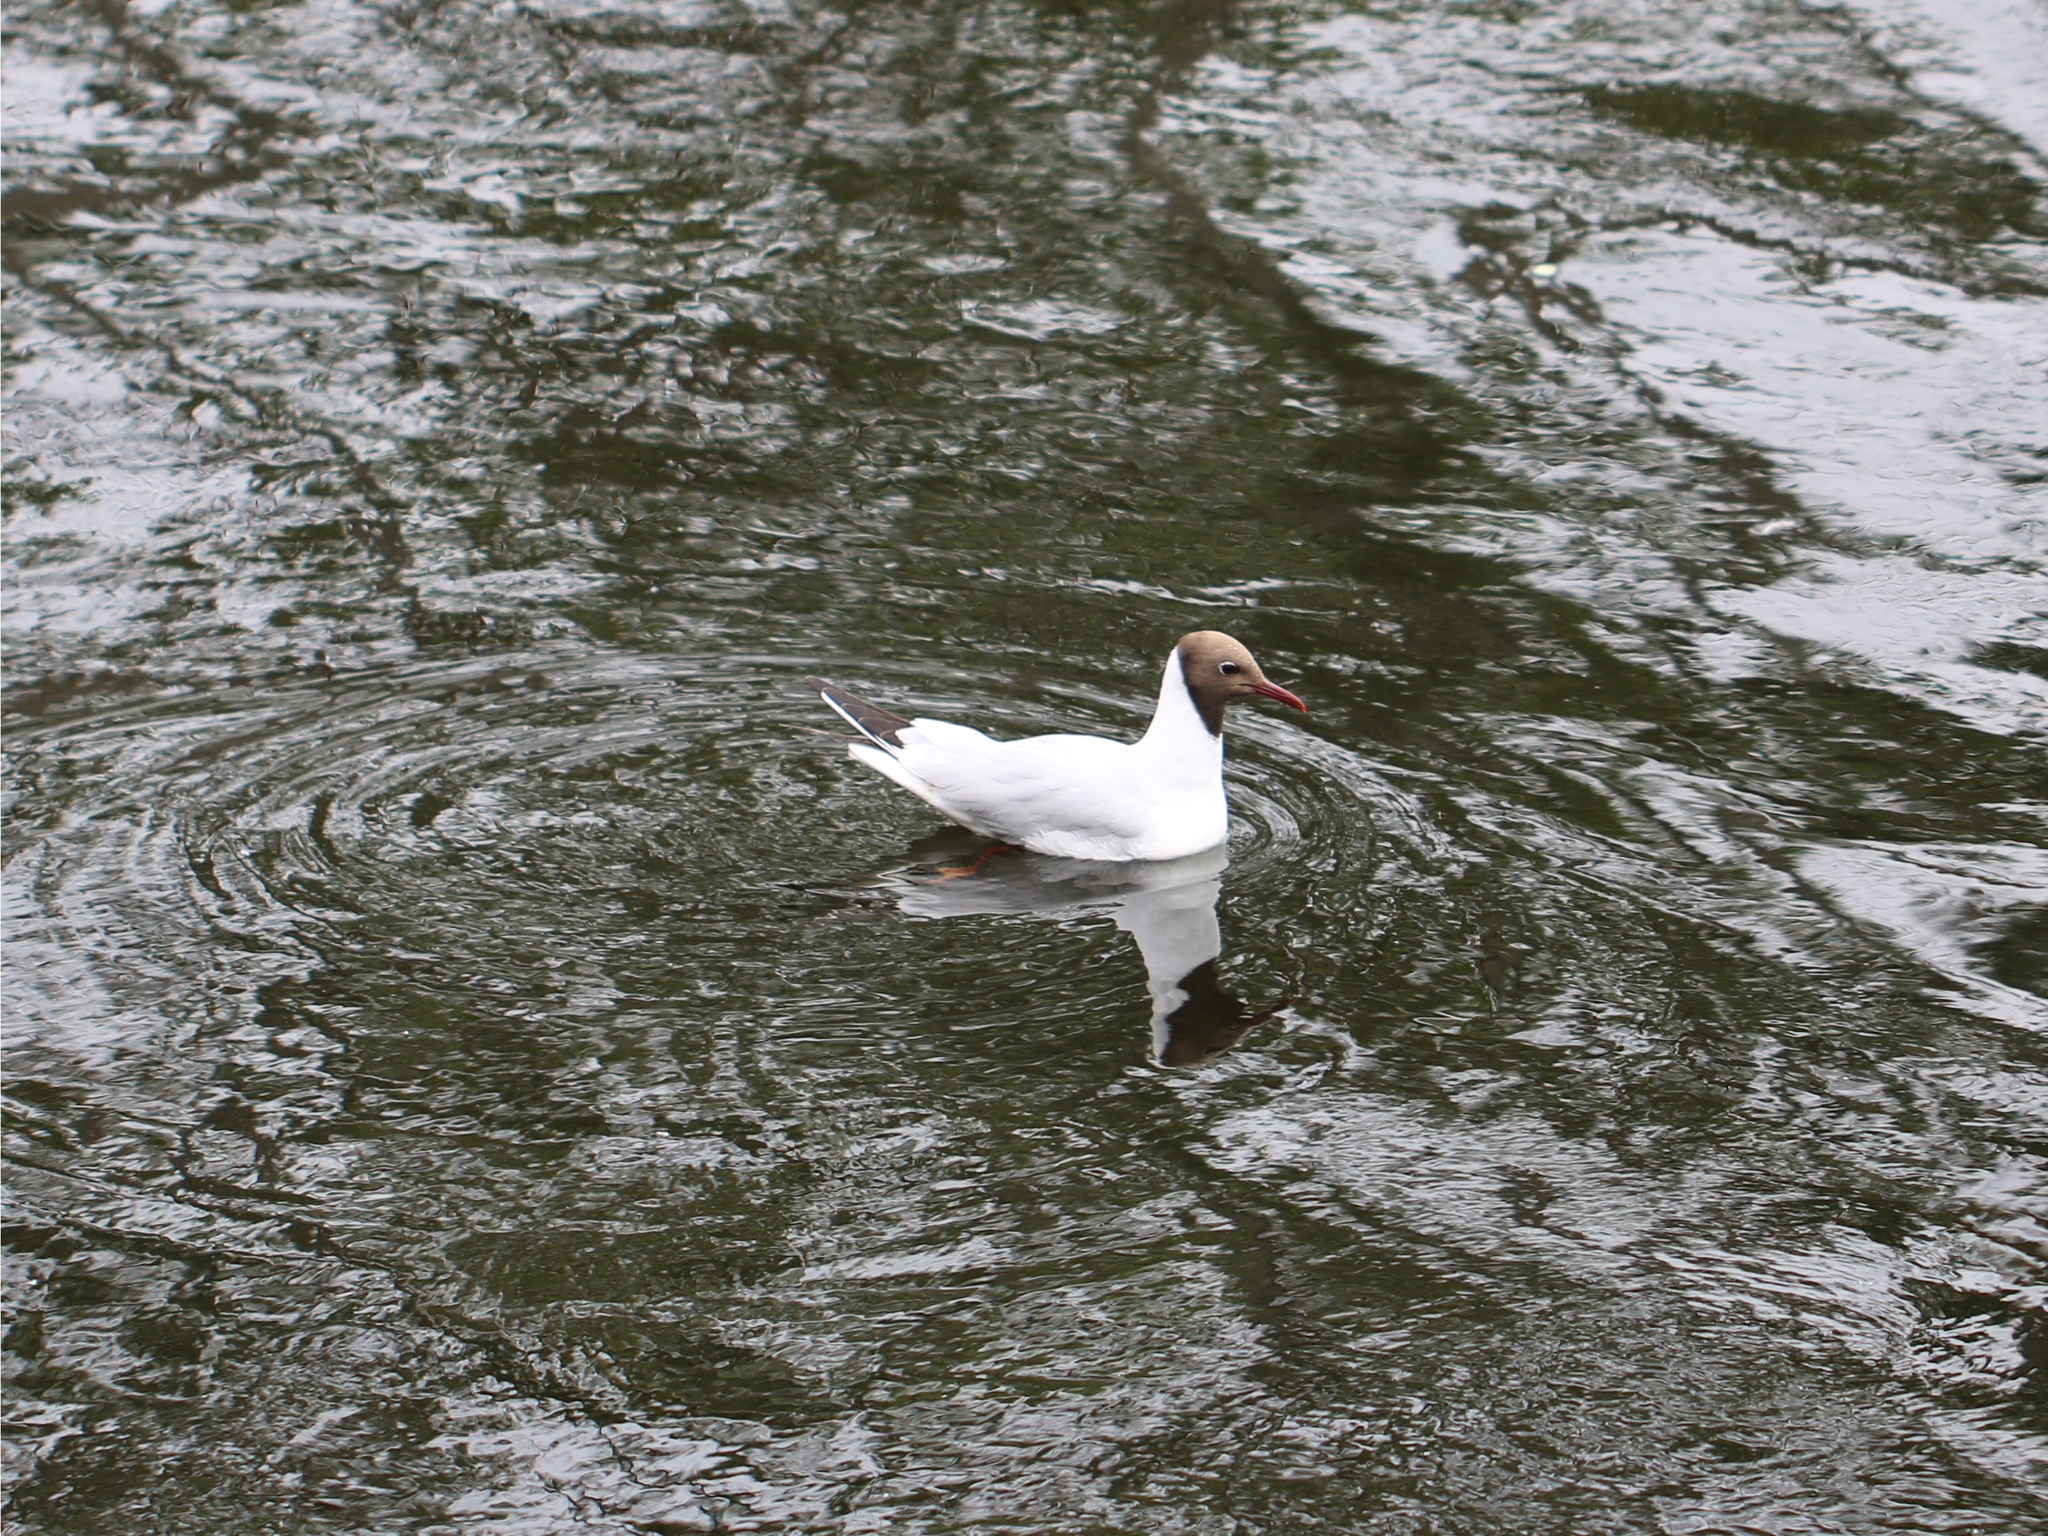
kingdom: Animalia
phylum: Chordata
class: Aves
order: Charadriiformes
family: Laridae
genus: Chroicocephalus
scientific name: Chroicocephalus ridibundus
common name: Black-headed gull
